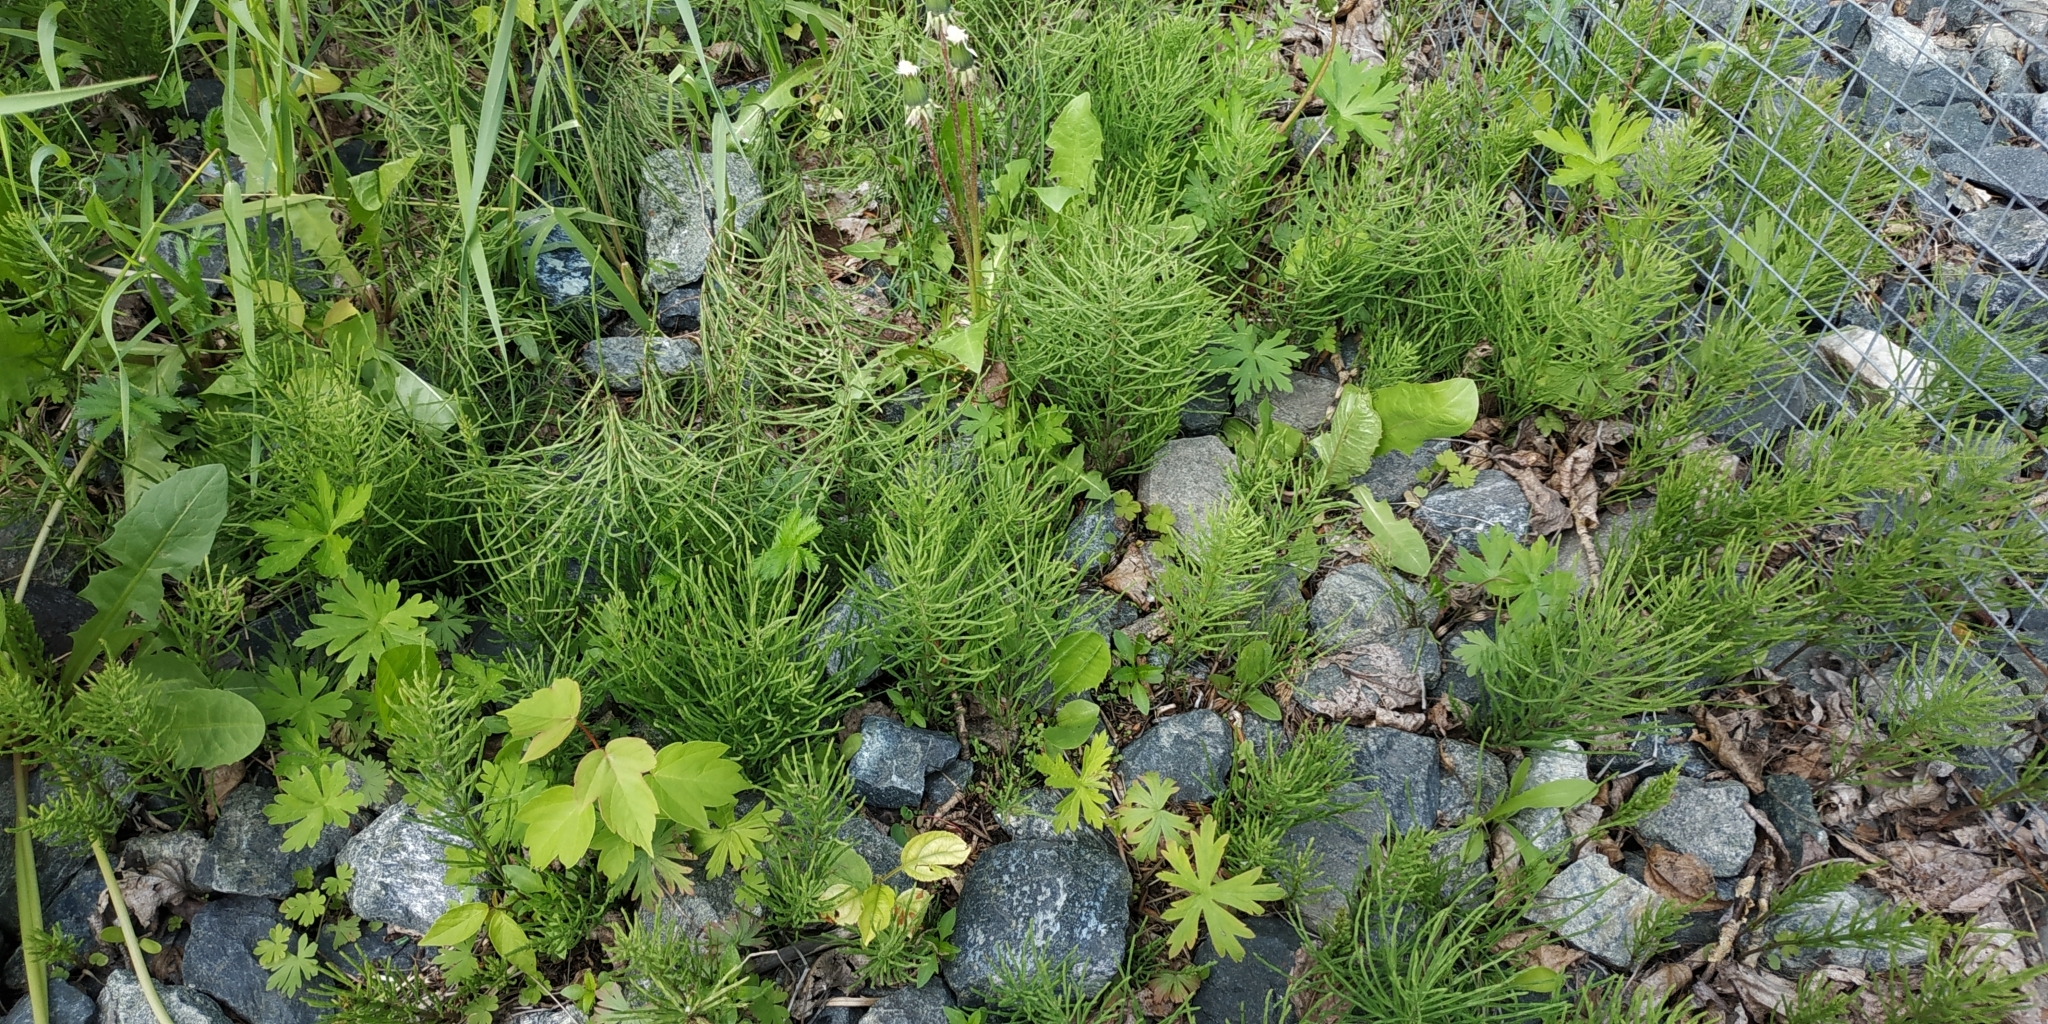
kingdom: Plantae
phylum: Tracheophyta
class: Polypodiopsida
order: Equisetales
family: Equisetaceae
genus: Equisetum
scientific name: Equisetum arvense
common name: Field horsetail
